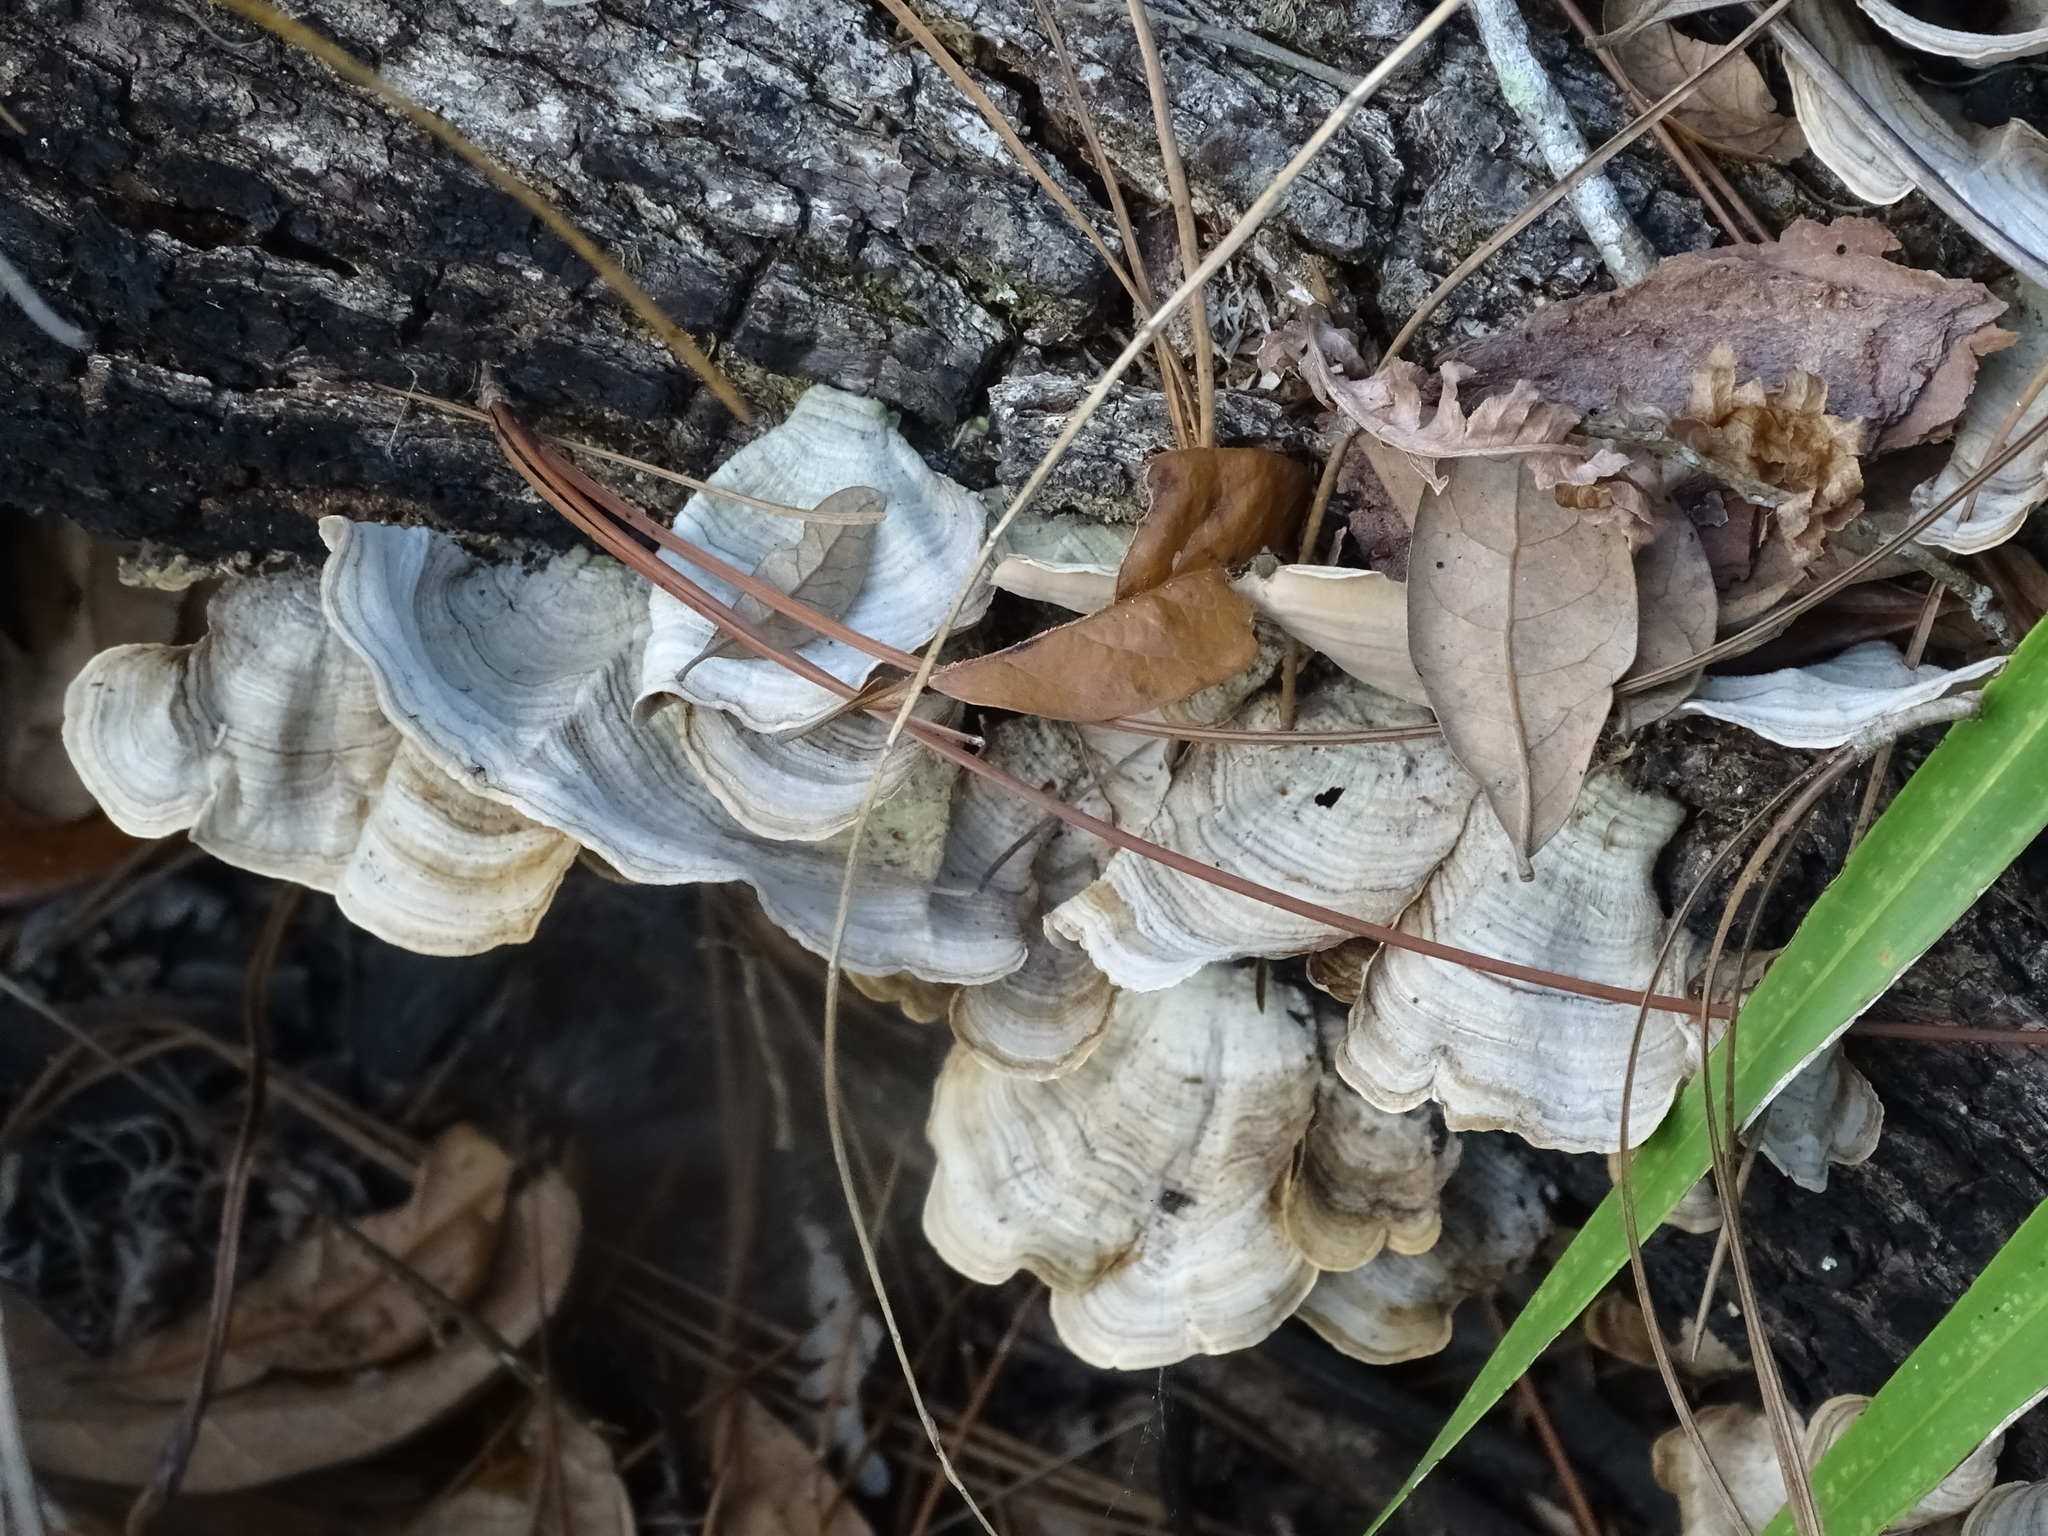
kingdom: Fungi
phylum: Basidiomycota
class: Agaricomycetes
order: Russulales
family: Stereaceae
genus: Stereum
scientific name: Stereum ostrea
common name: False turkeytail
